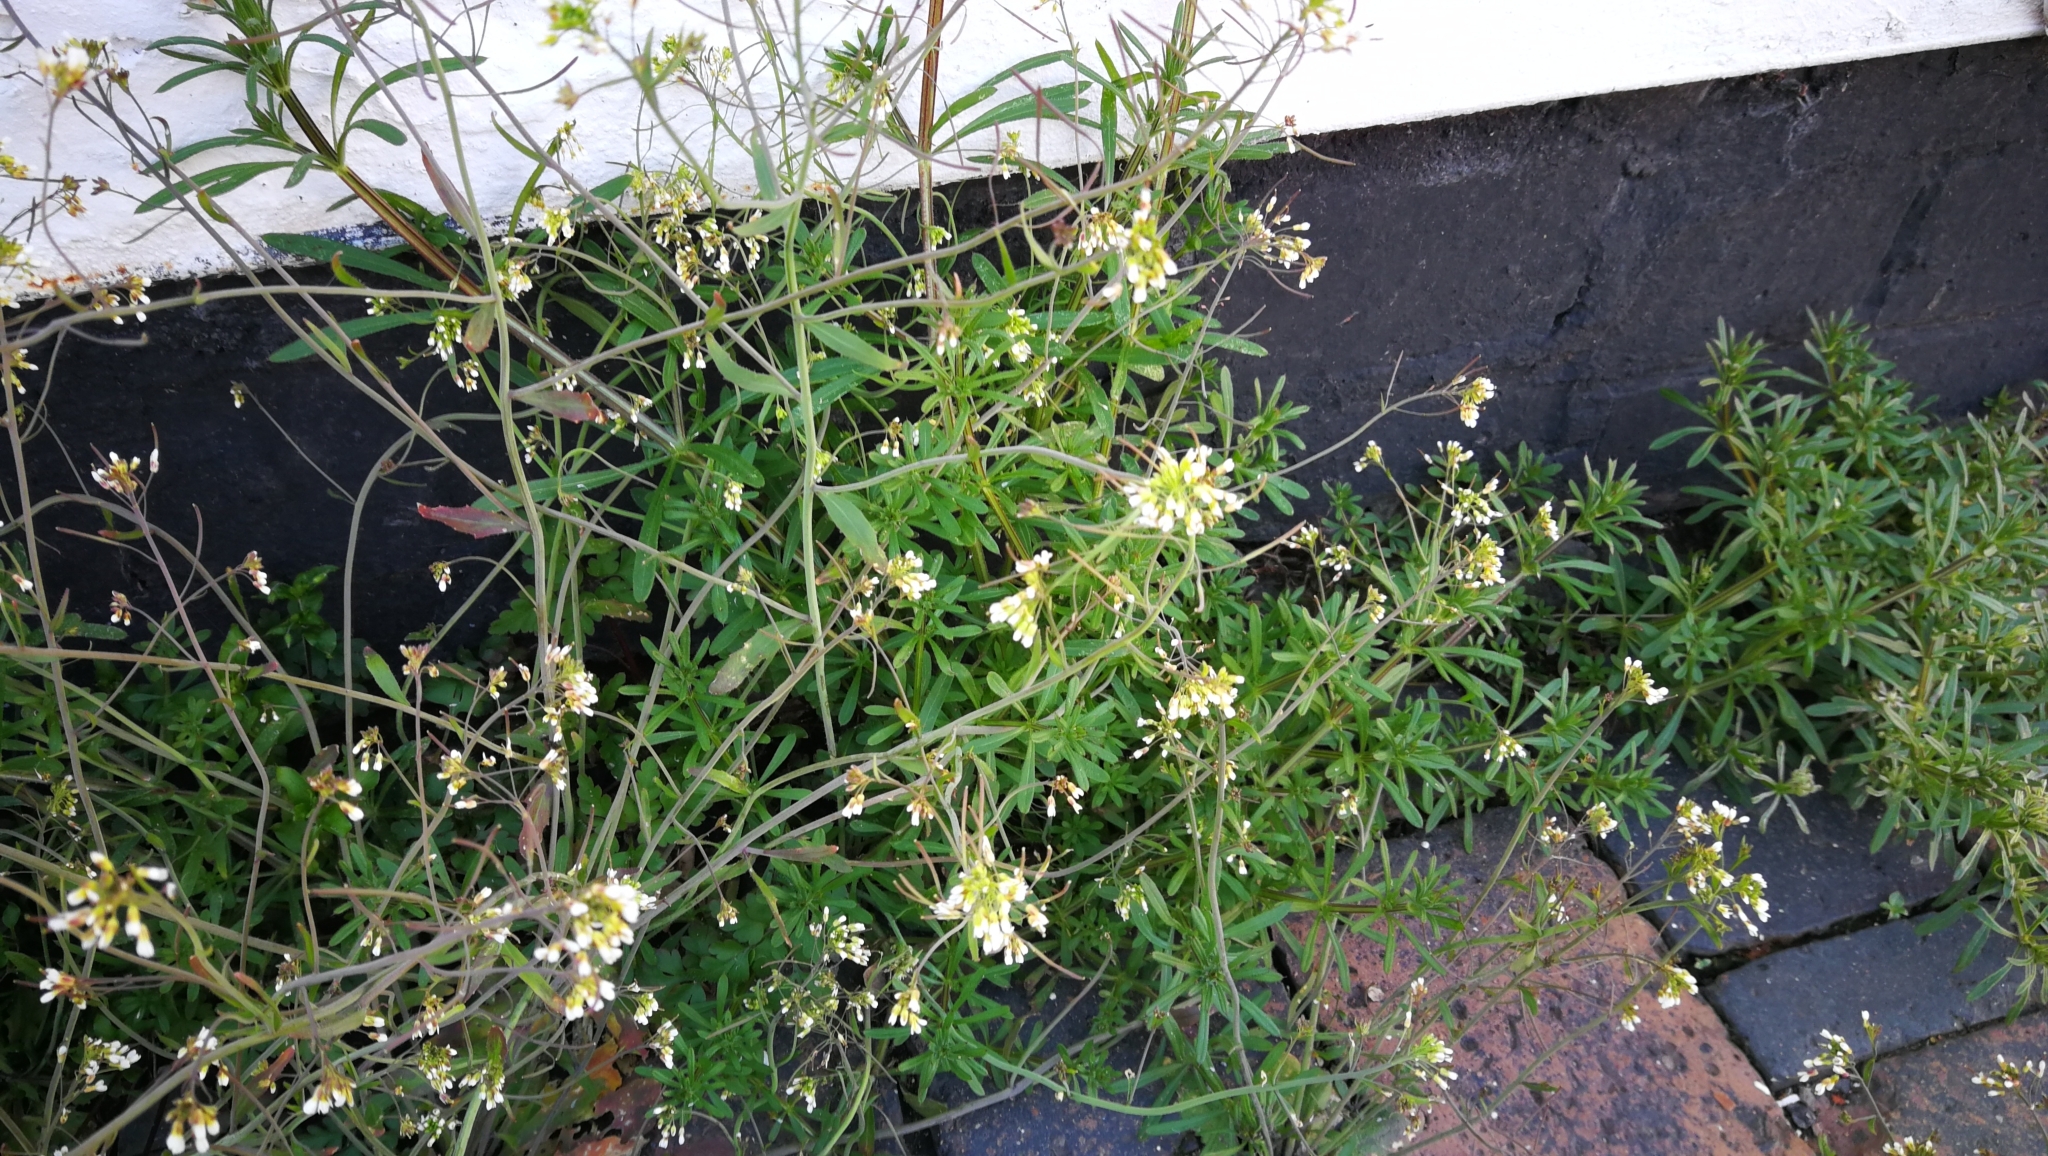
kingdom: Plantae
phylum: Tracheophyta
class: Magnoliopsida
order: Brassicales
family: Brassicaceae
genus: Arabidopsis
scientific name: Arabidopsis thaliana
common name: Thale cress
